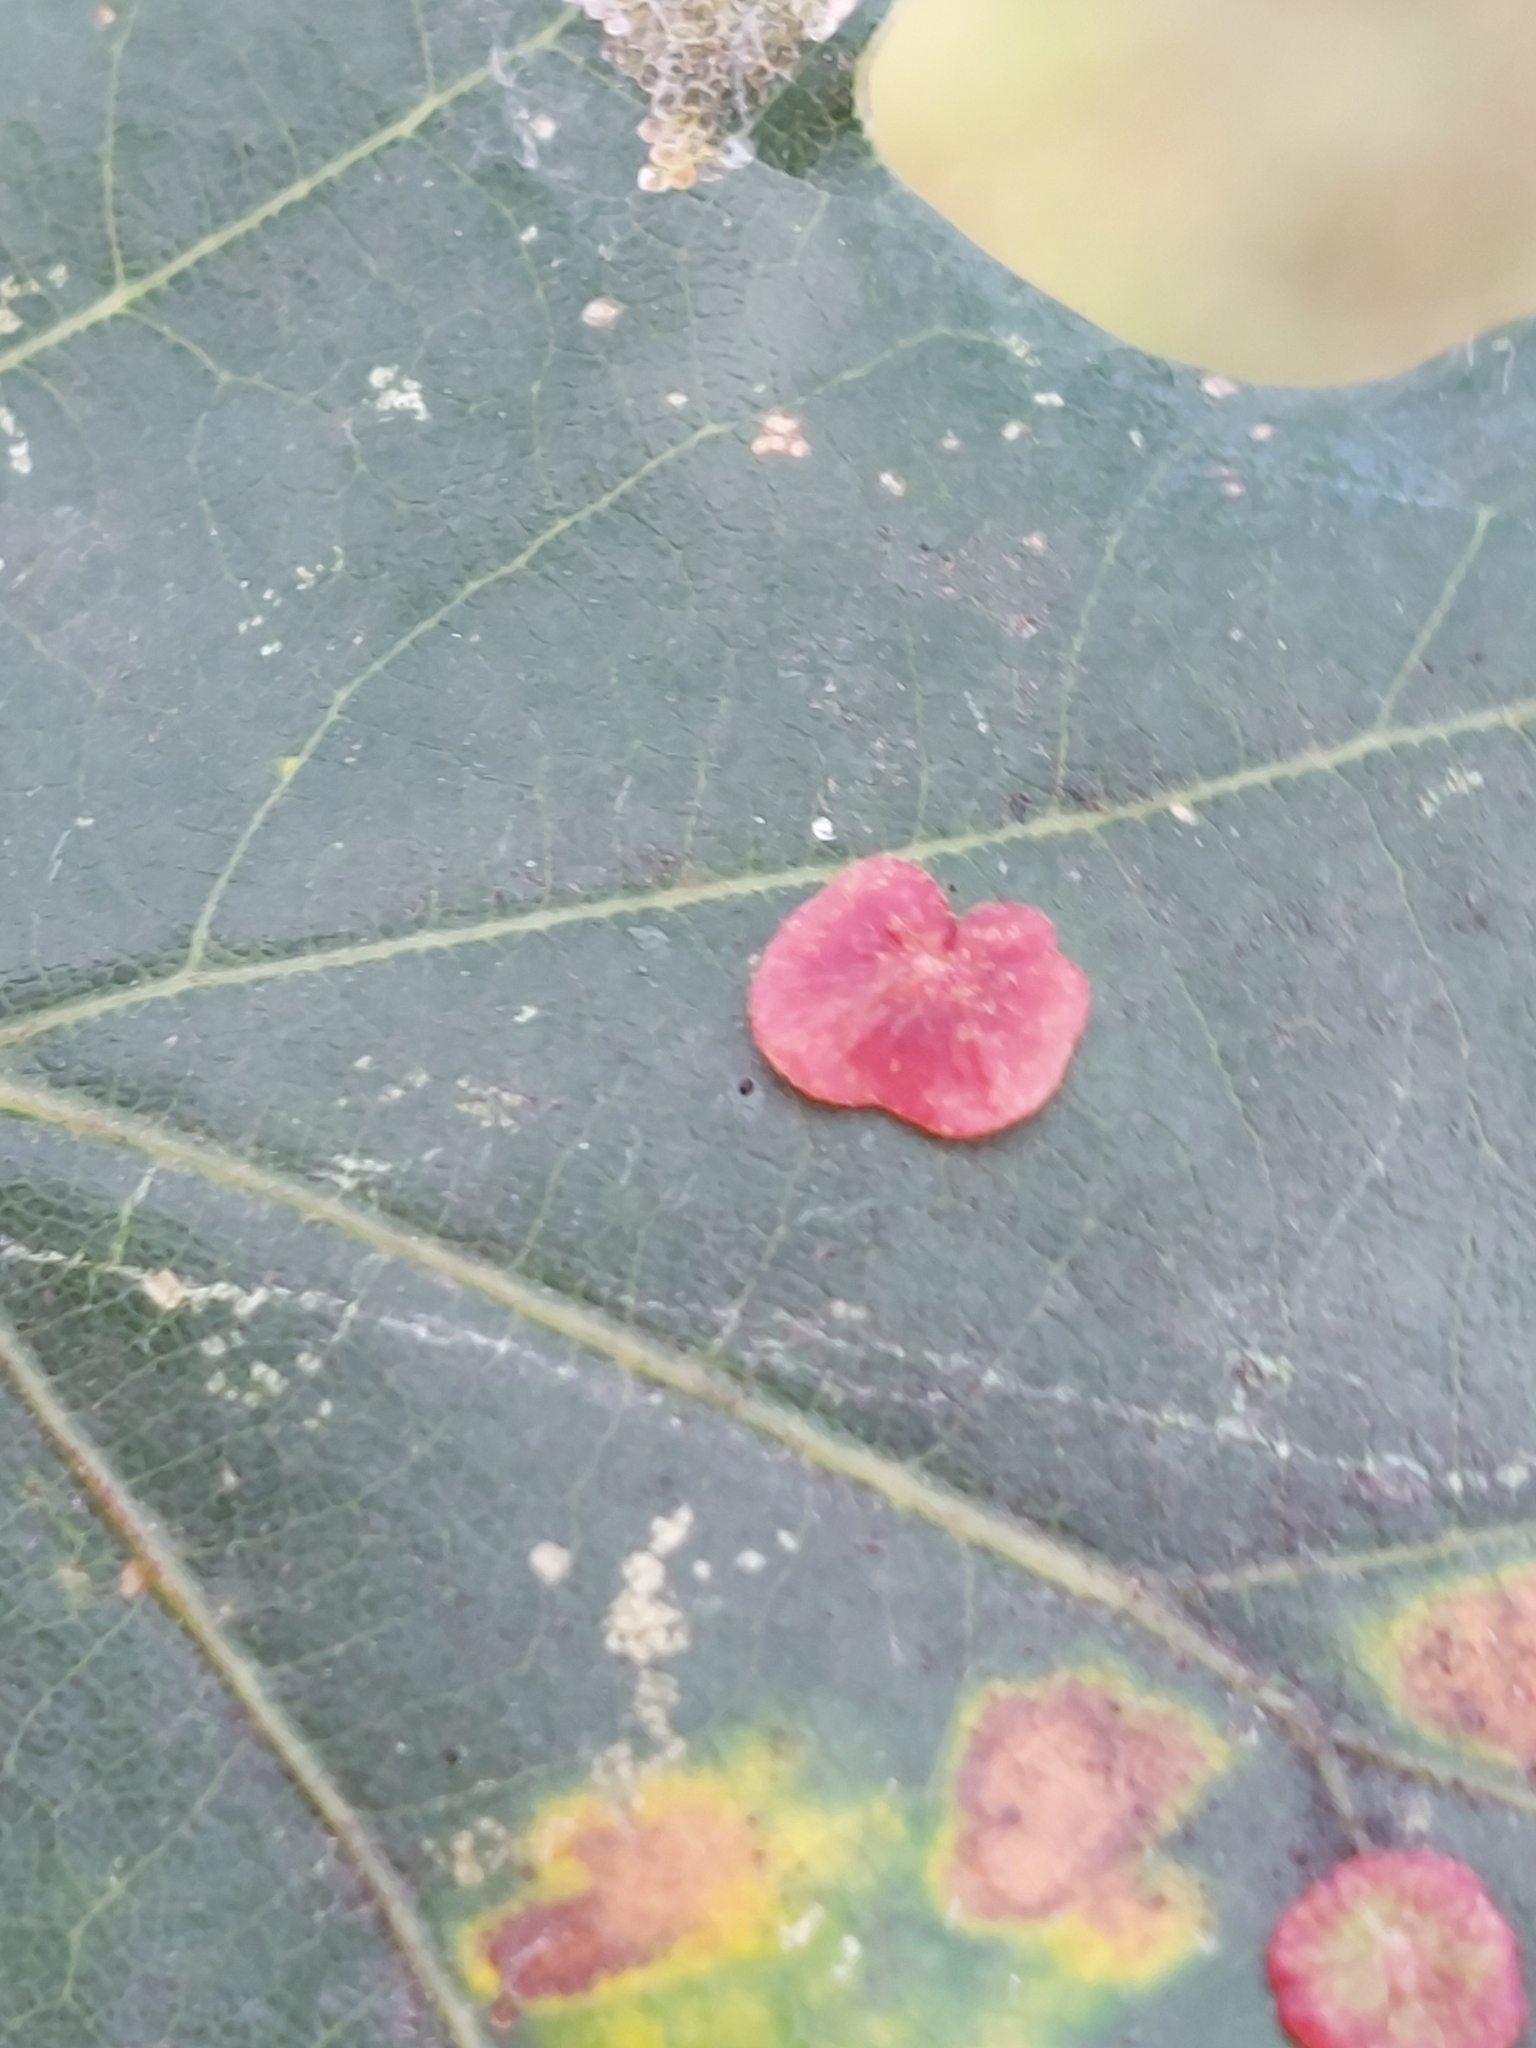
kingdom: Animalia
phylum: Arthropoda
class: Insecta
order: Hymenoptera
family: Cynipidae
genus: Neuroterus
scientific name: Neuroterus albipes
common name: Smooth spangle gall
